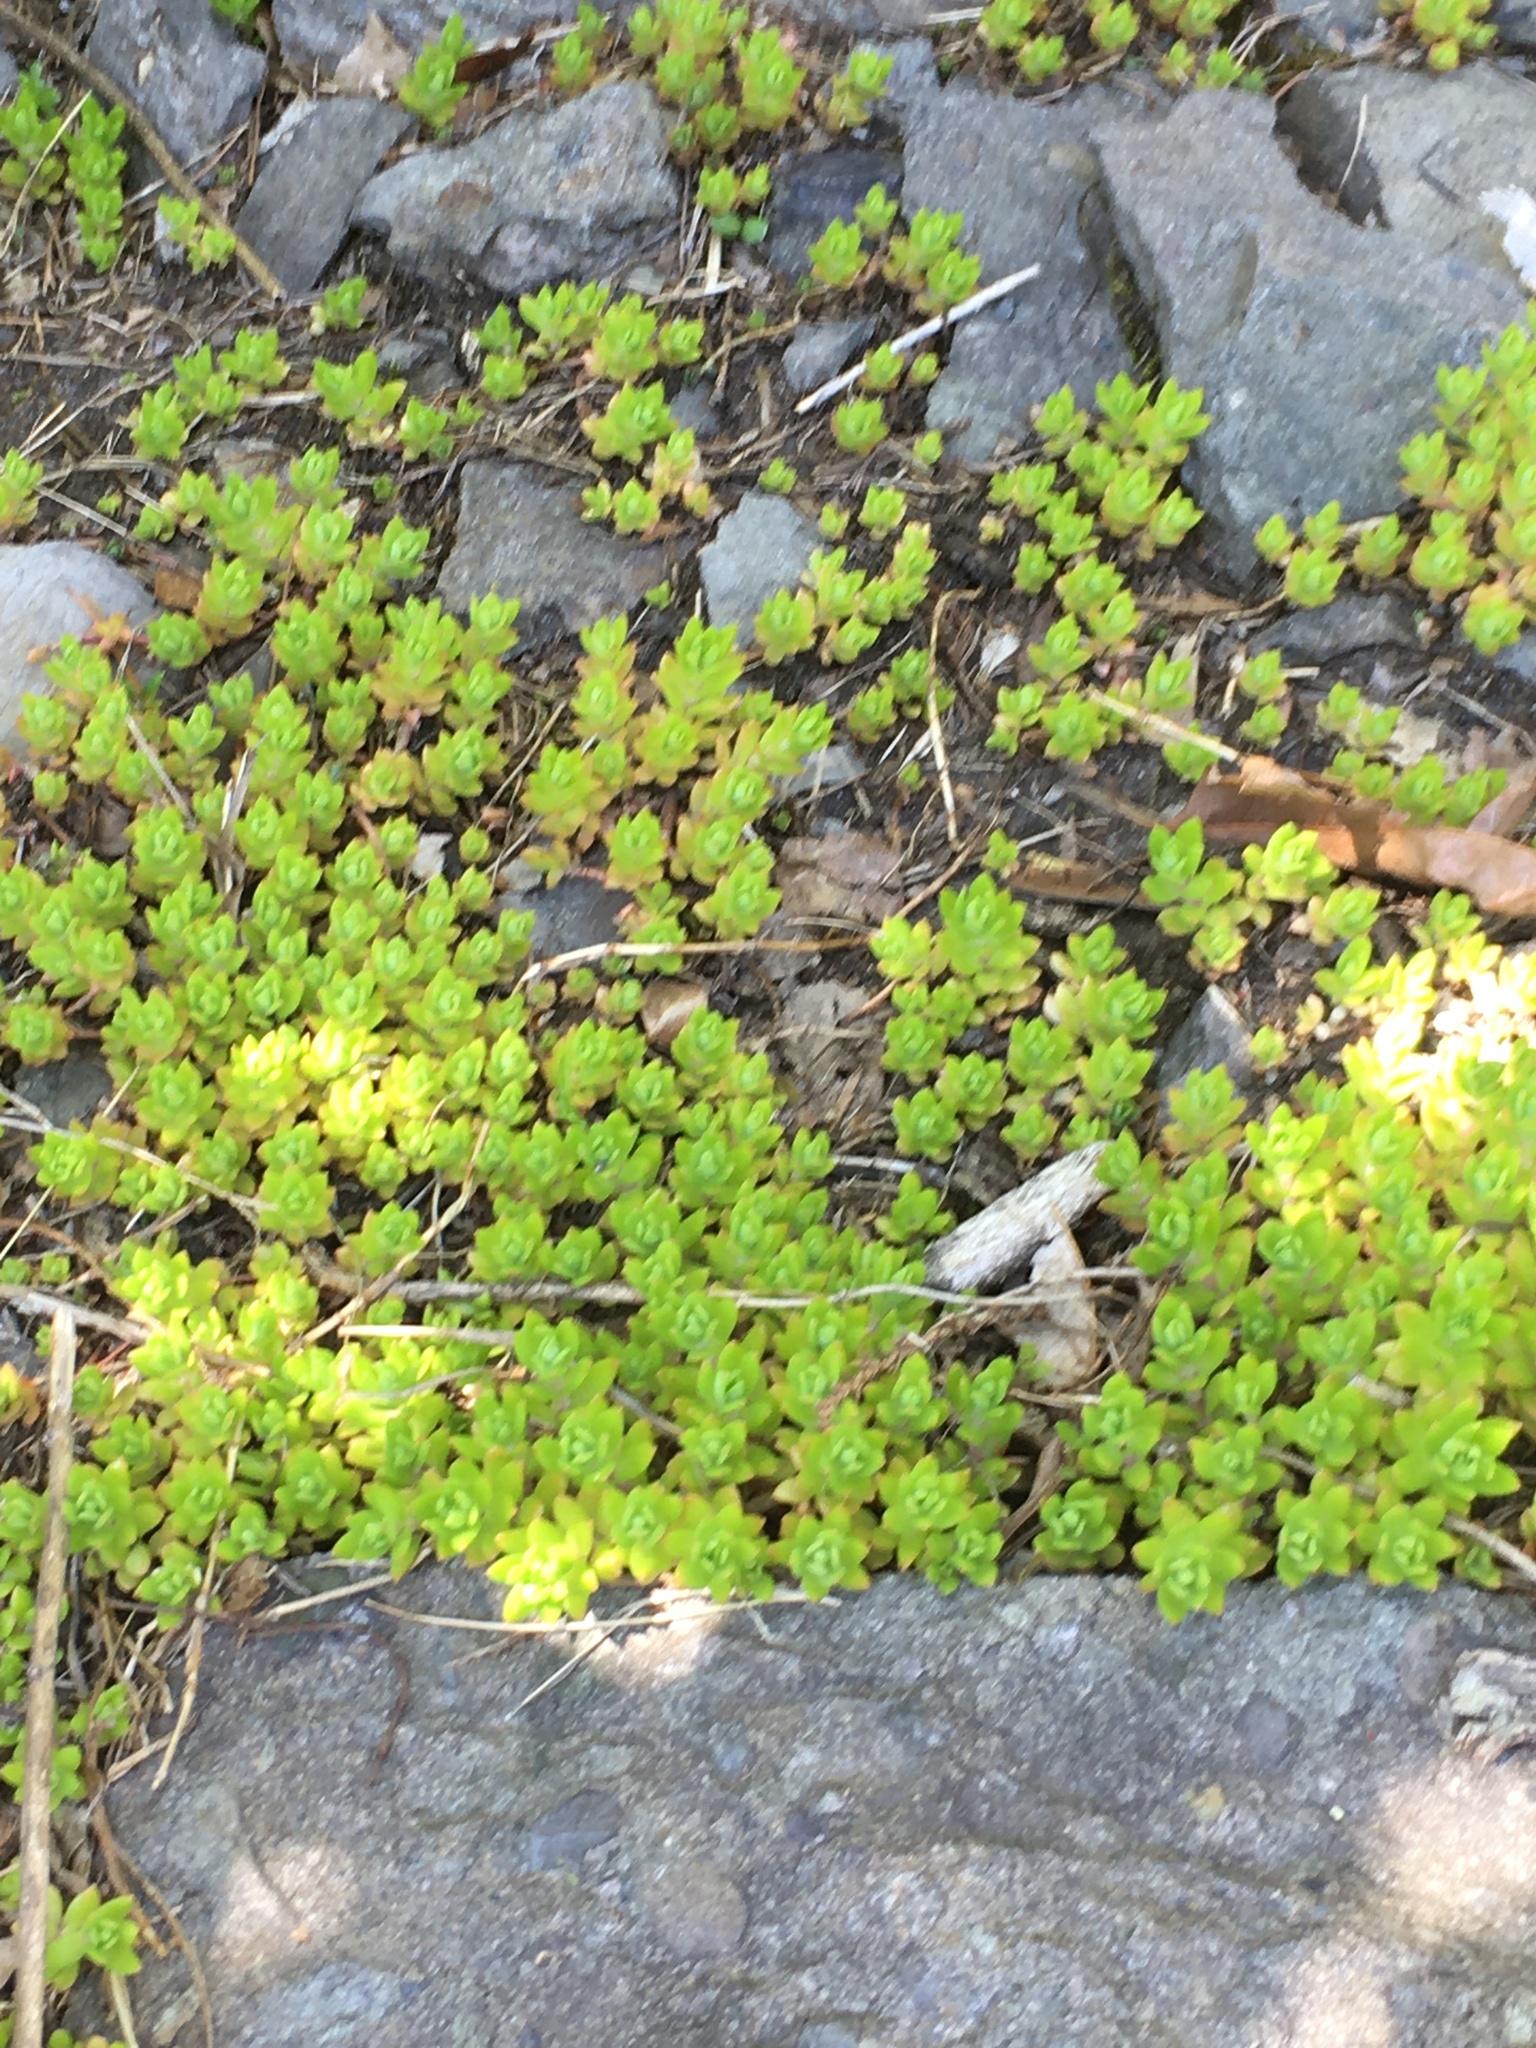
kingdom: Plantae
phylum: Tracheophyta
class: Magnoliopsida
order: Saxifragales
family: Crassulaceae
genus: Sedum
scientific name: Sedum sarmentosum
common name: Stringy stonecrop
